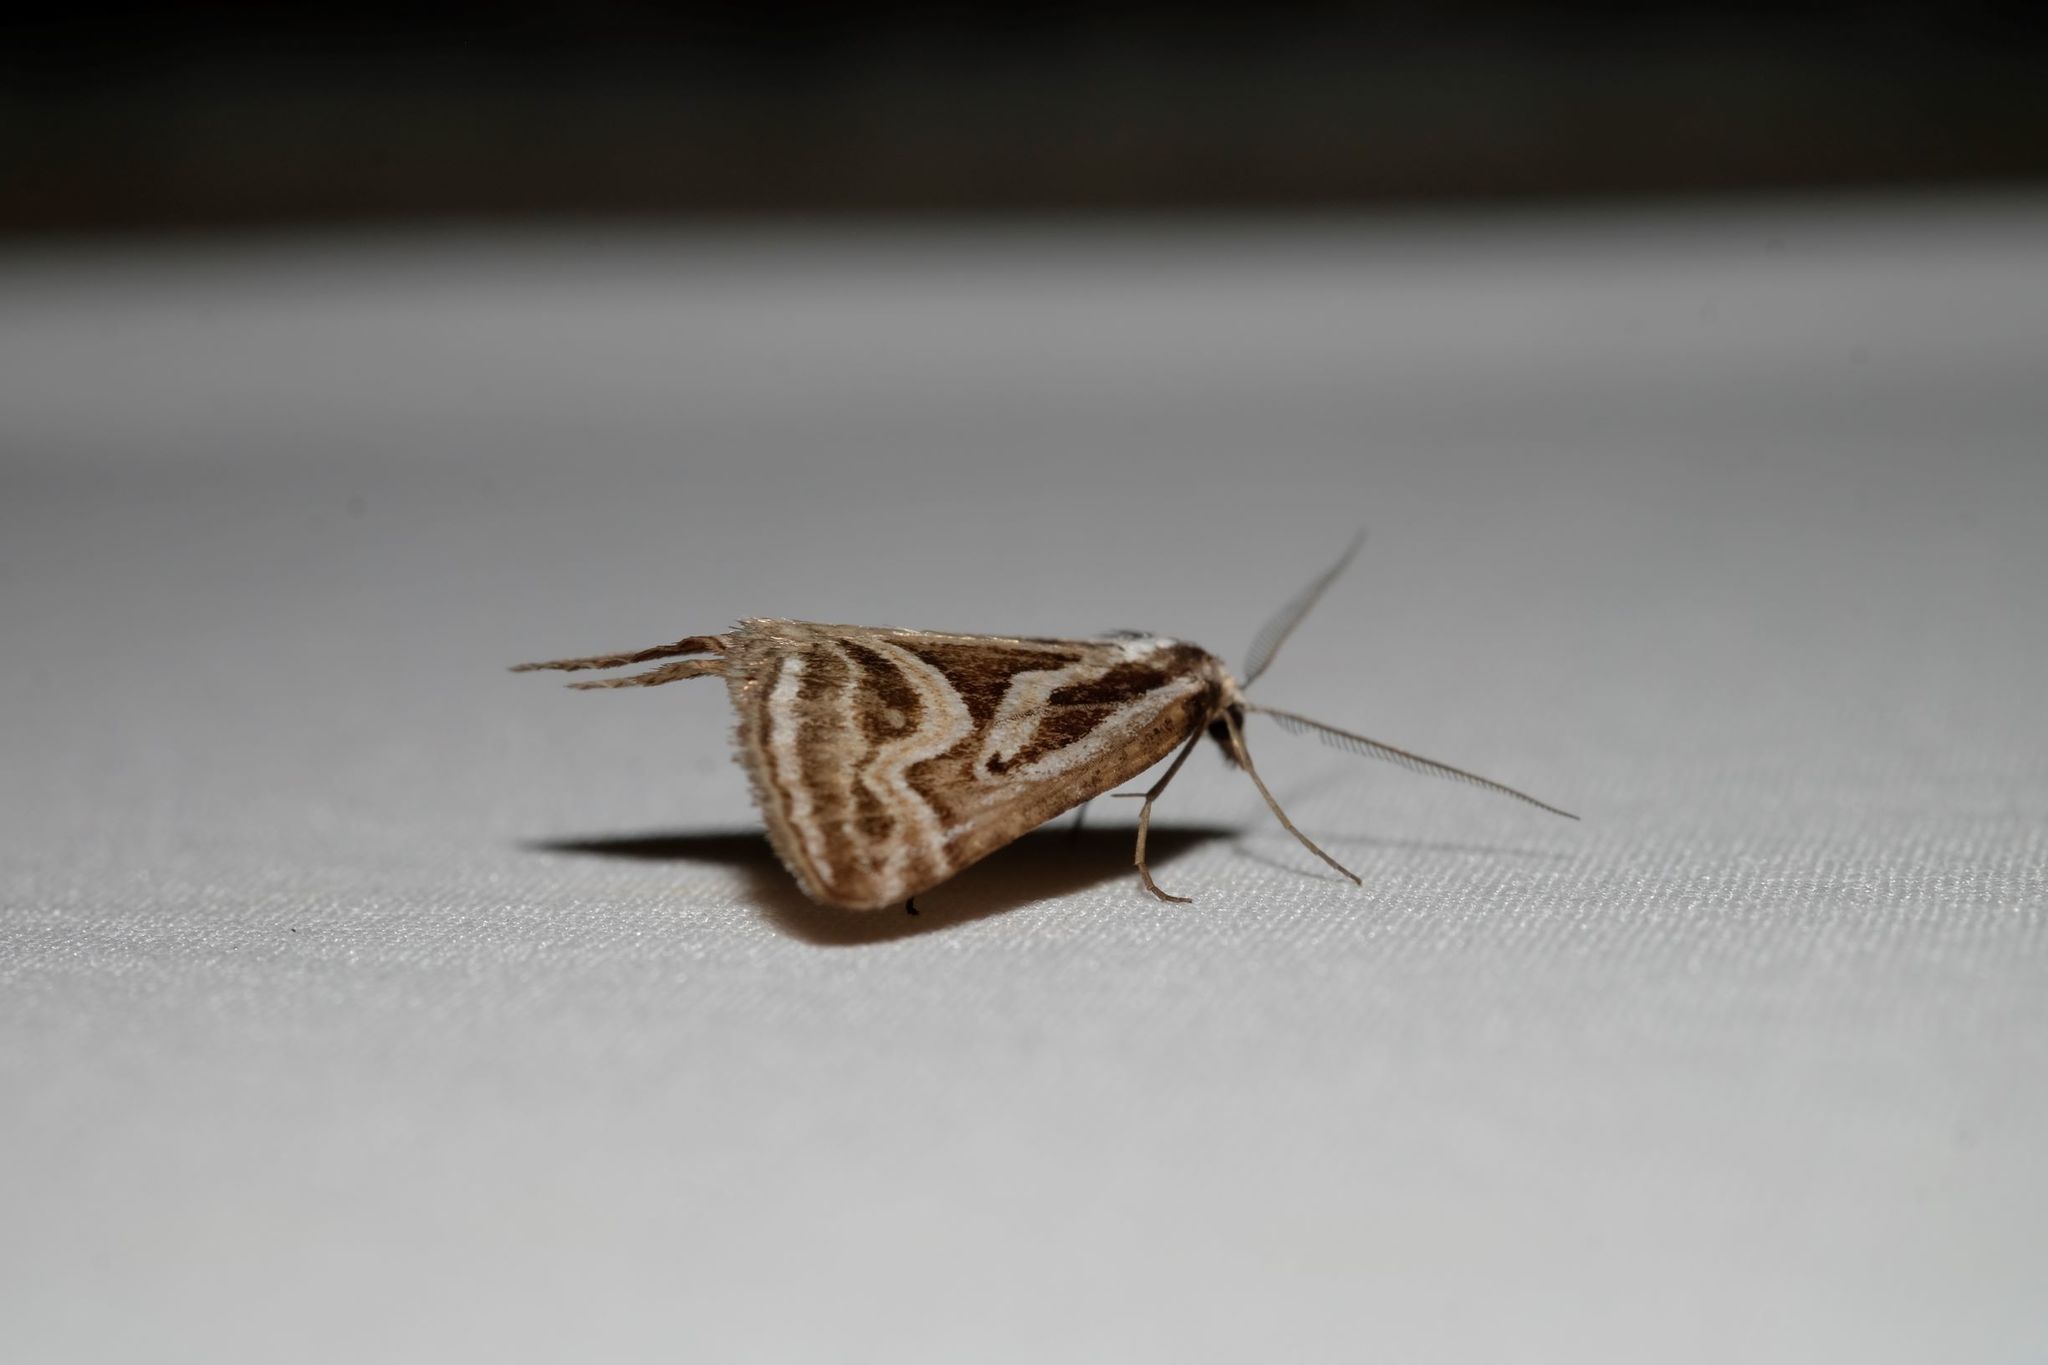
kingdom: Animalia
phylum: Arthropoda
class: Insecta
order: Lepidoptera
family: Geometridae
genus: Dichromodes
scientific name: Dichromodes confluaria
